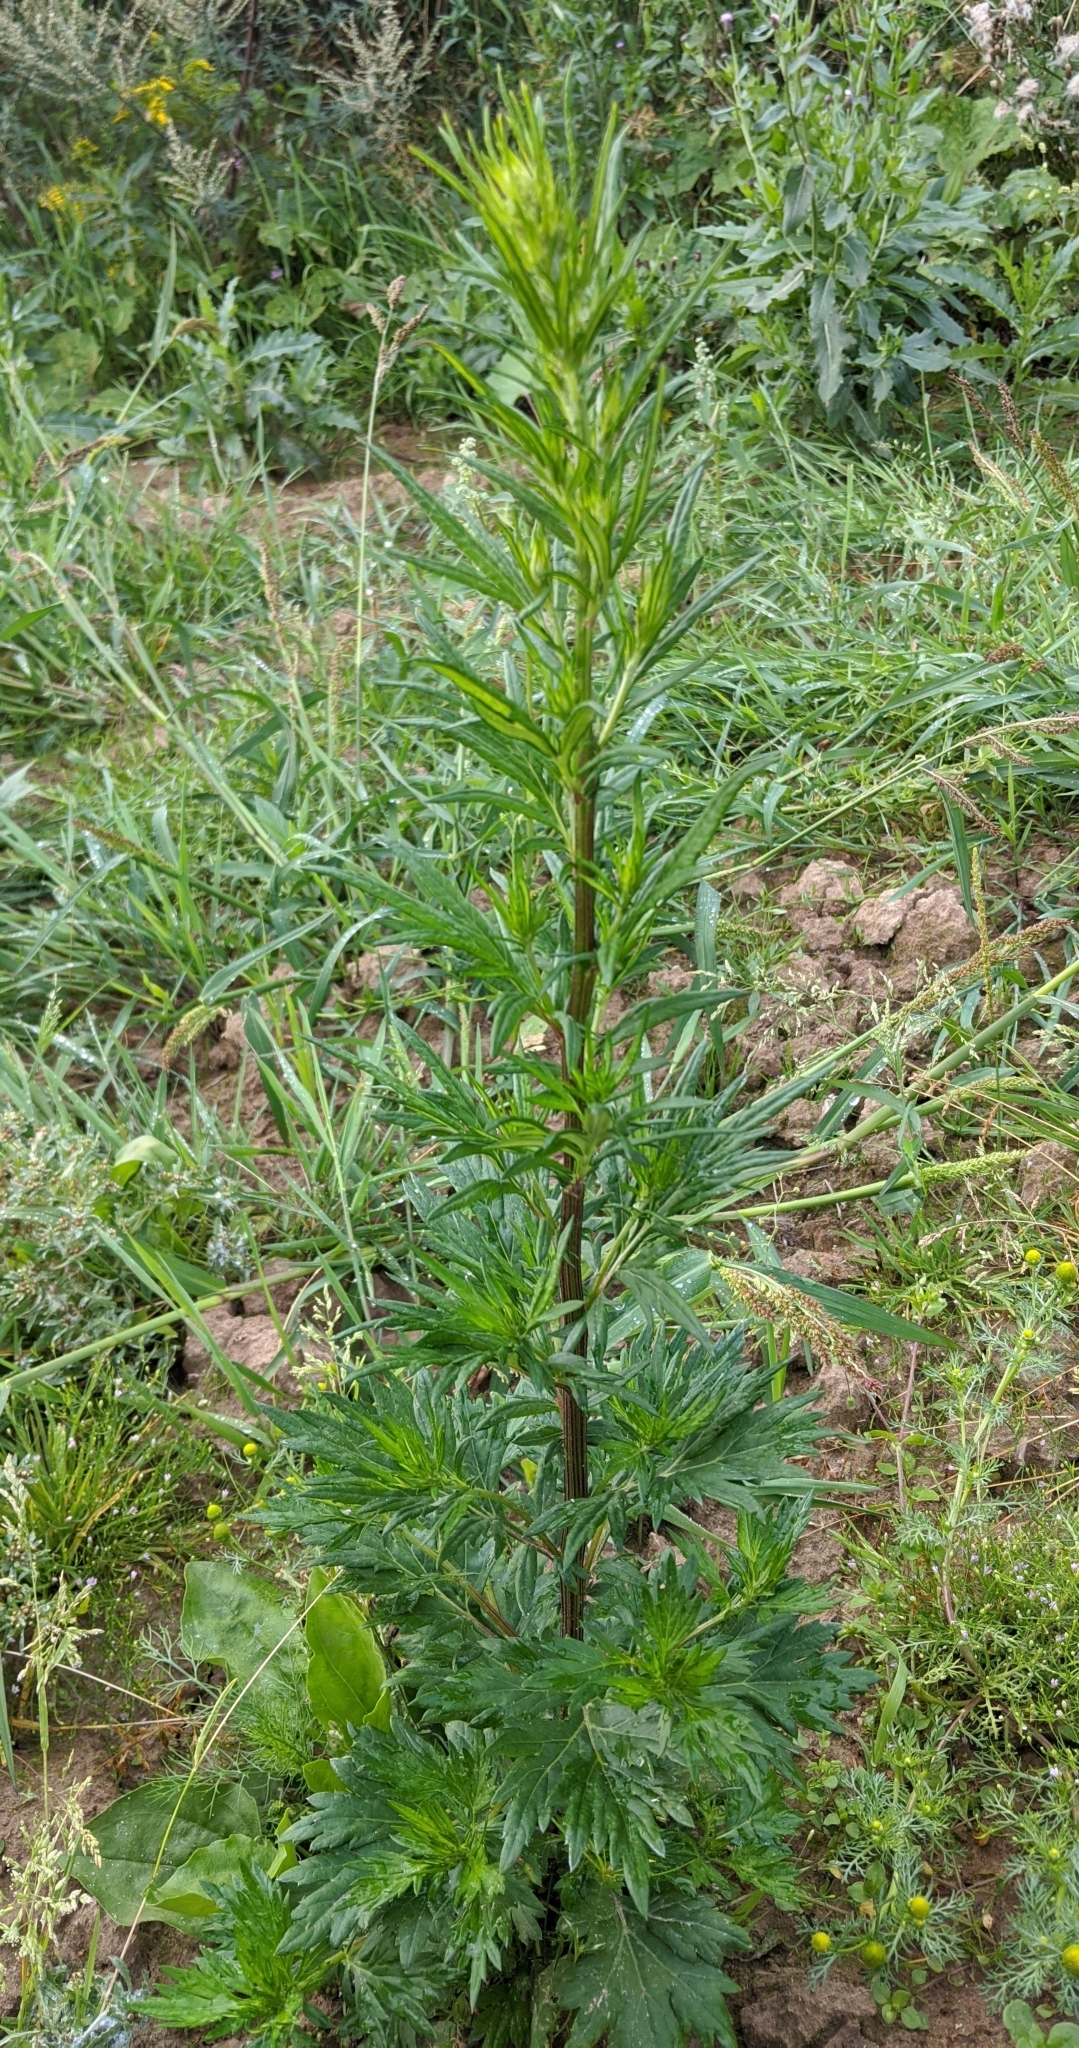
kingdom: Plantae
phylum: Tracheophyta
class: Magnoliopsida
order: Asterales
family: Asteraceae
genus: Artemisia
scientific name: Artemisia vulgaris
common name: Mugwort
